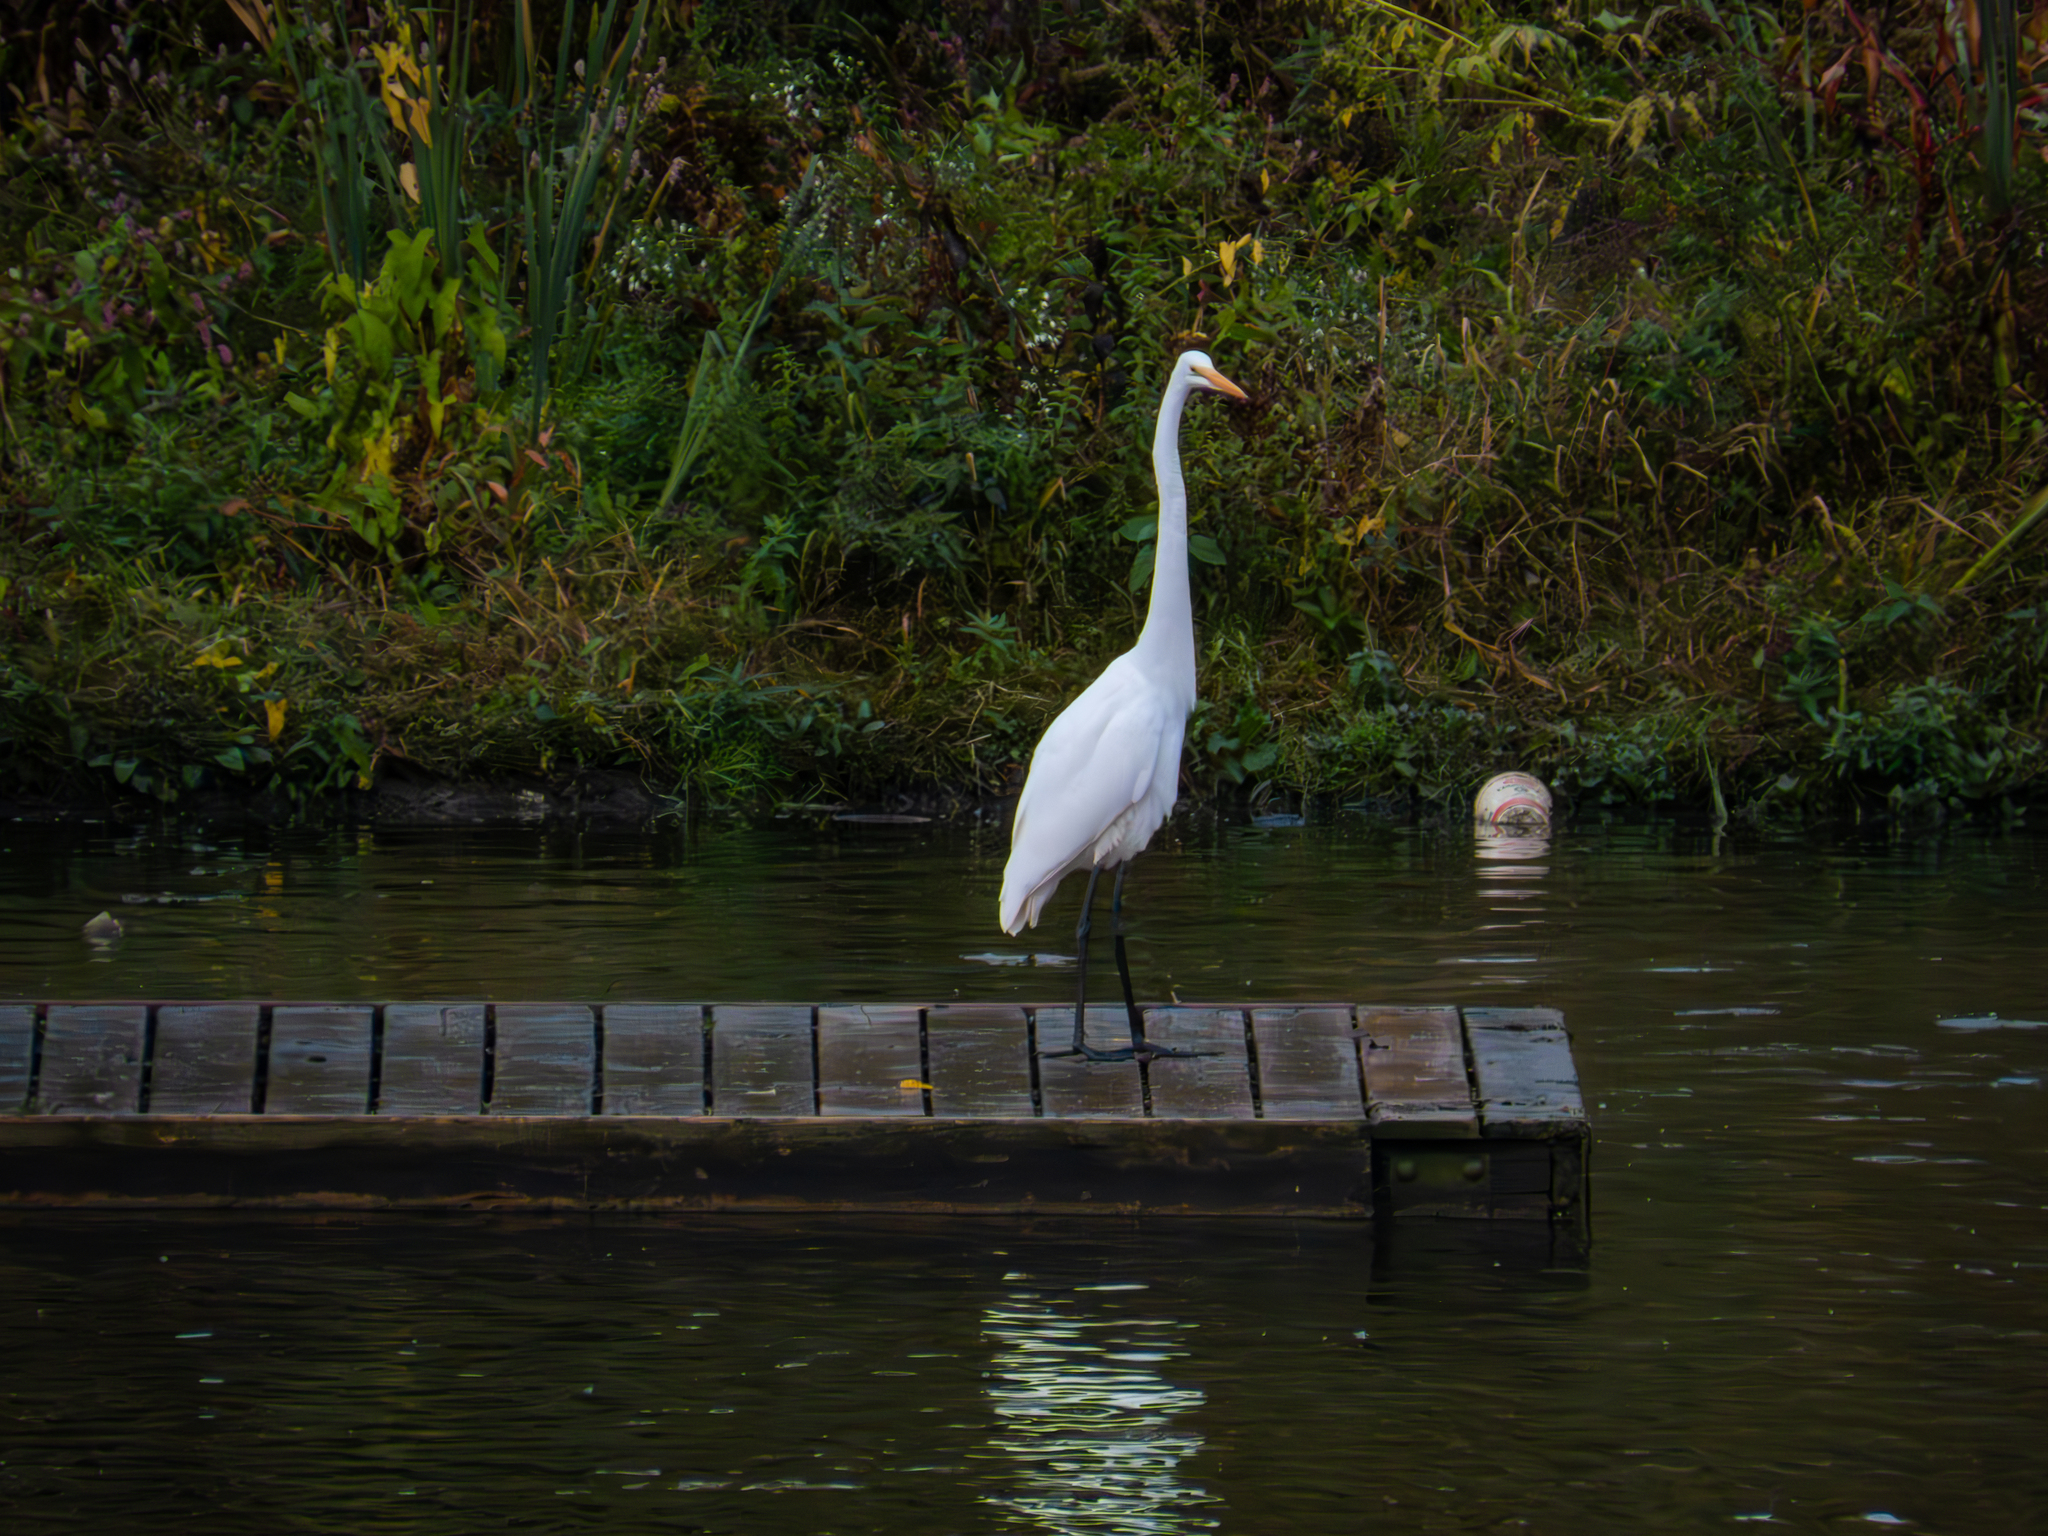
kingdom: Animalia
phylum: Chordata
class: Aves
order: Pelecaniformes
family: Ardeidae
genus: Ardea
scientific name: Ardea alba
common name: Great egret
